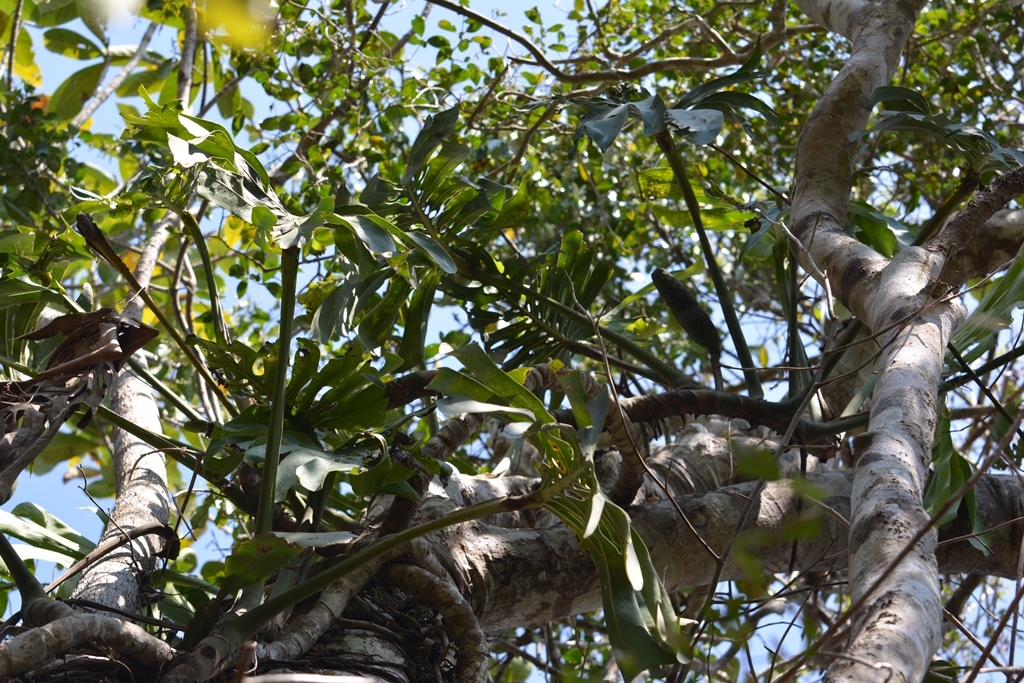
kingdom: Plantae
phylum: Tracheophyta
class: Liliopsida
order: Alismatales
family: Araceae
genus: Monstera
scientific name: Monstera deliciosa
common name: Cut-leaf-philodendron
